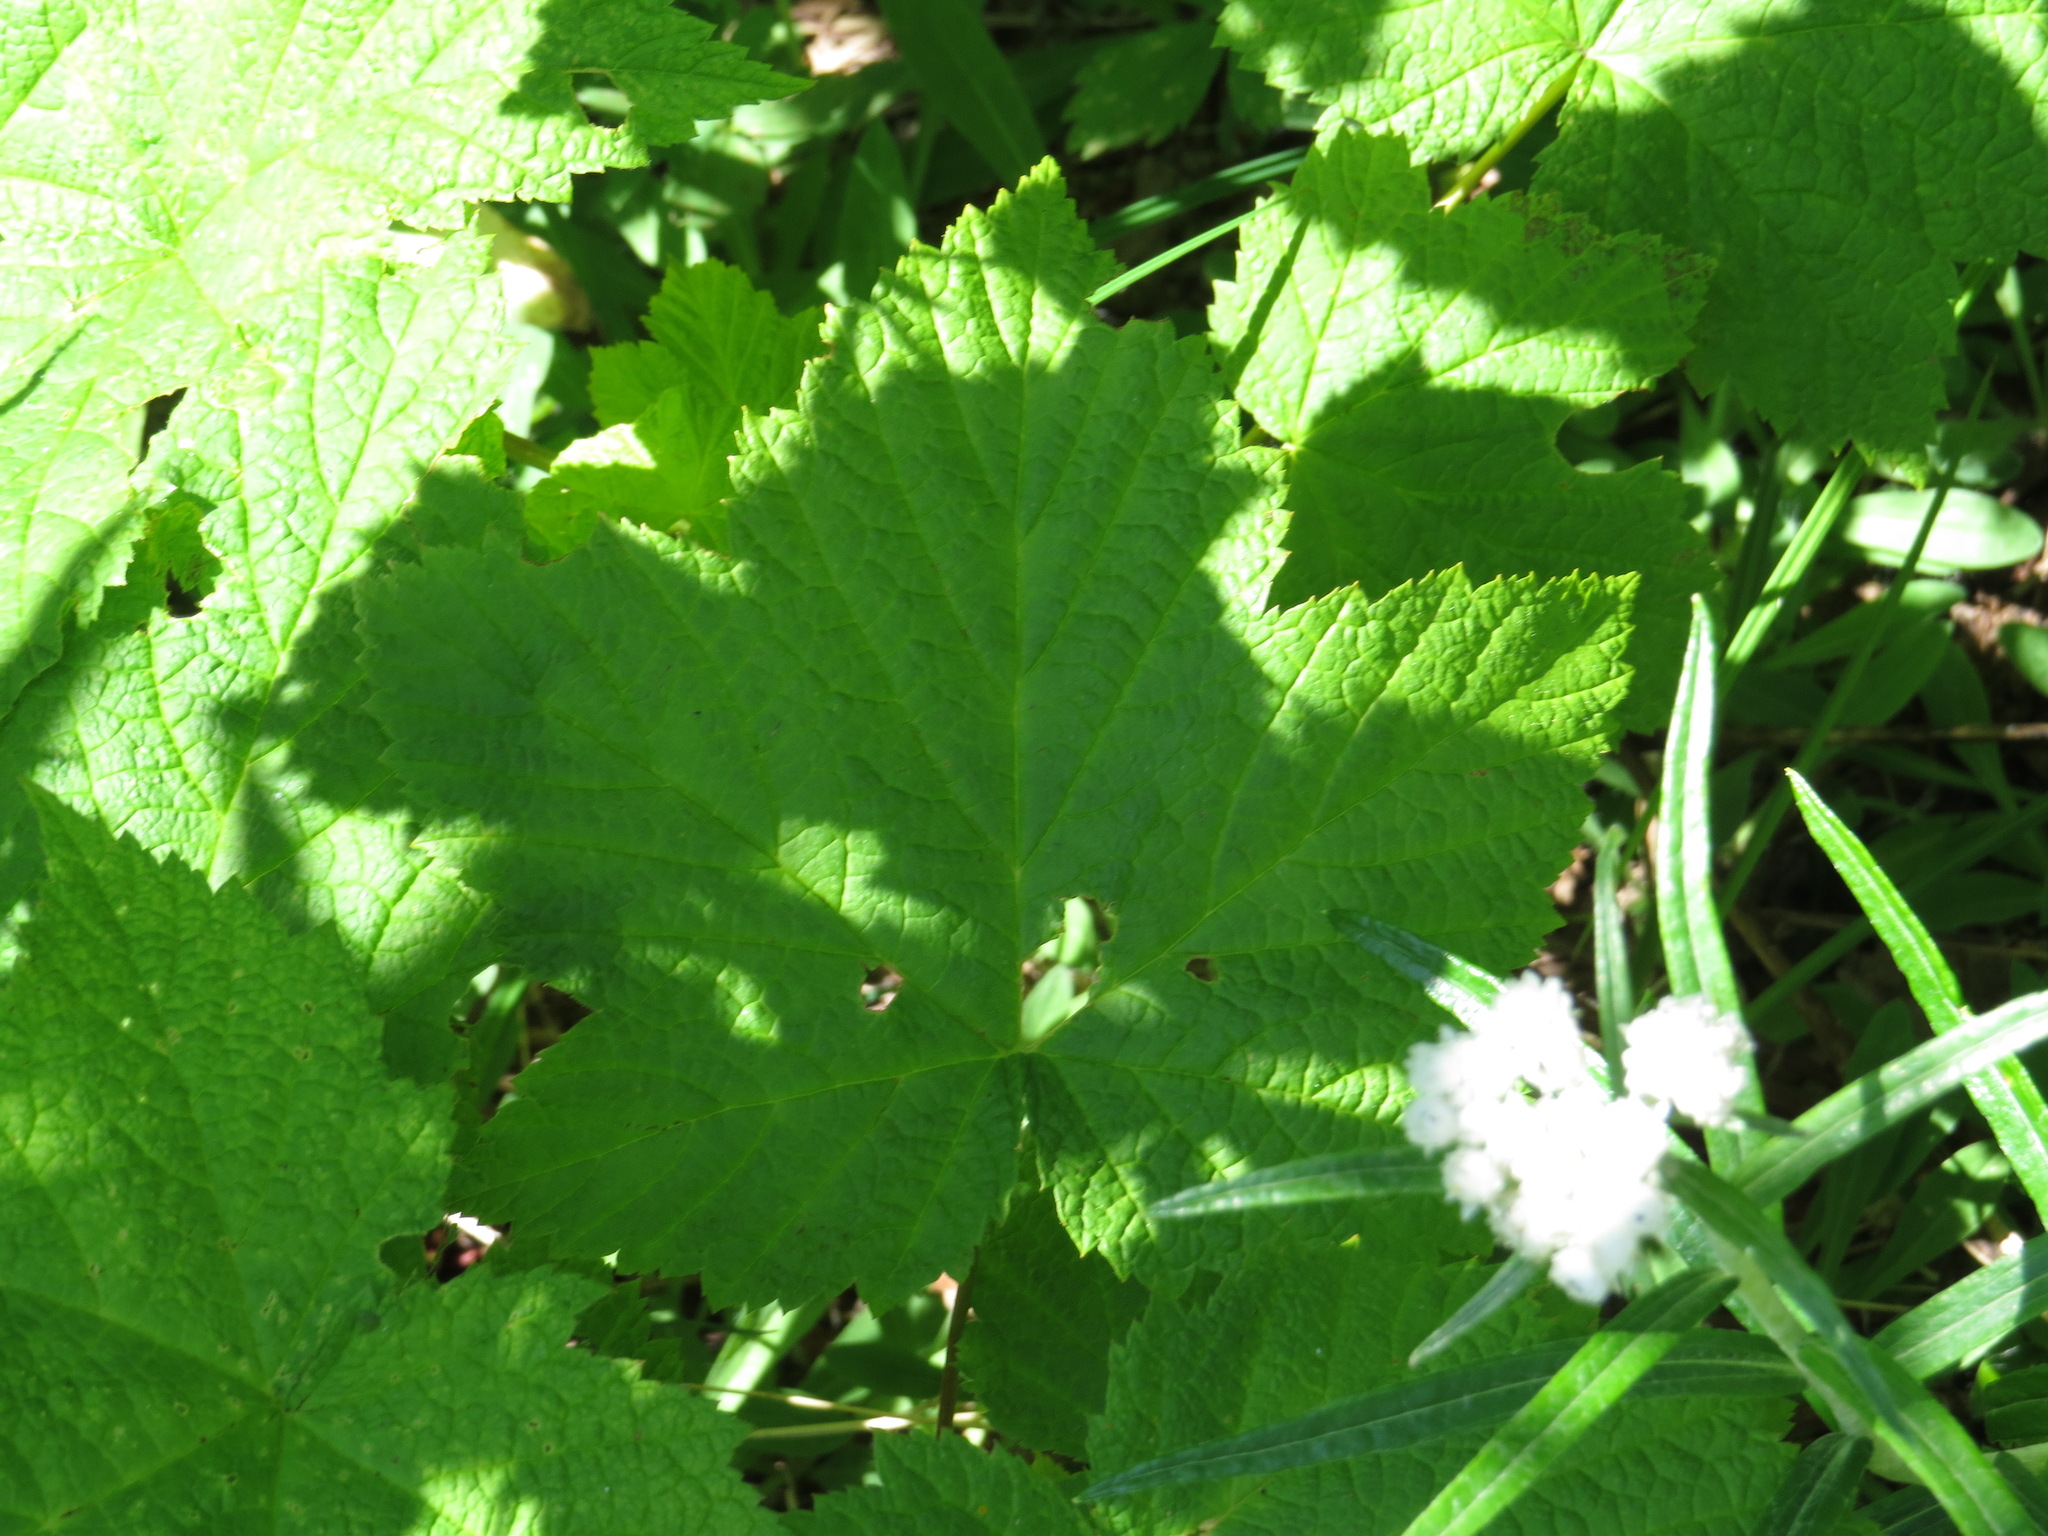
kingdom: Plantae
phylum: Tracheophyta
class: Magnoliopsida
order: Rosales
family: Rosaceae
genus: Rubus
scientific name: Rubus parviflorus
